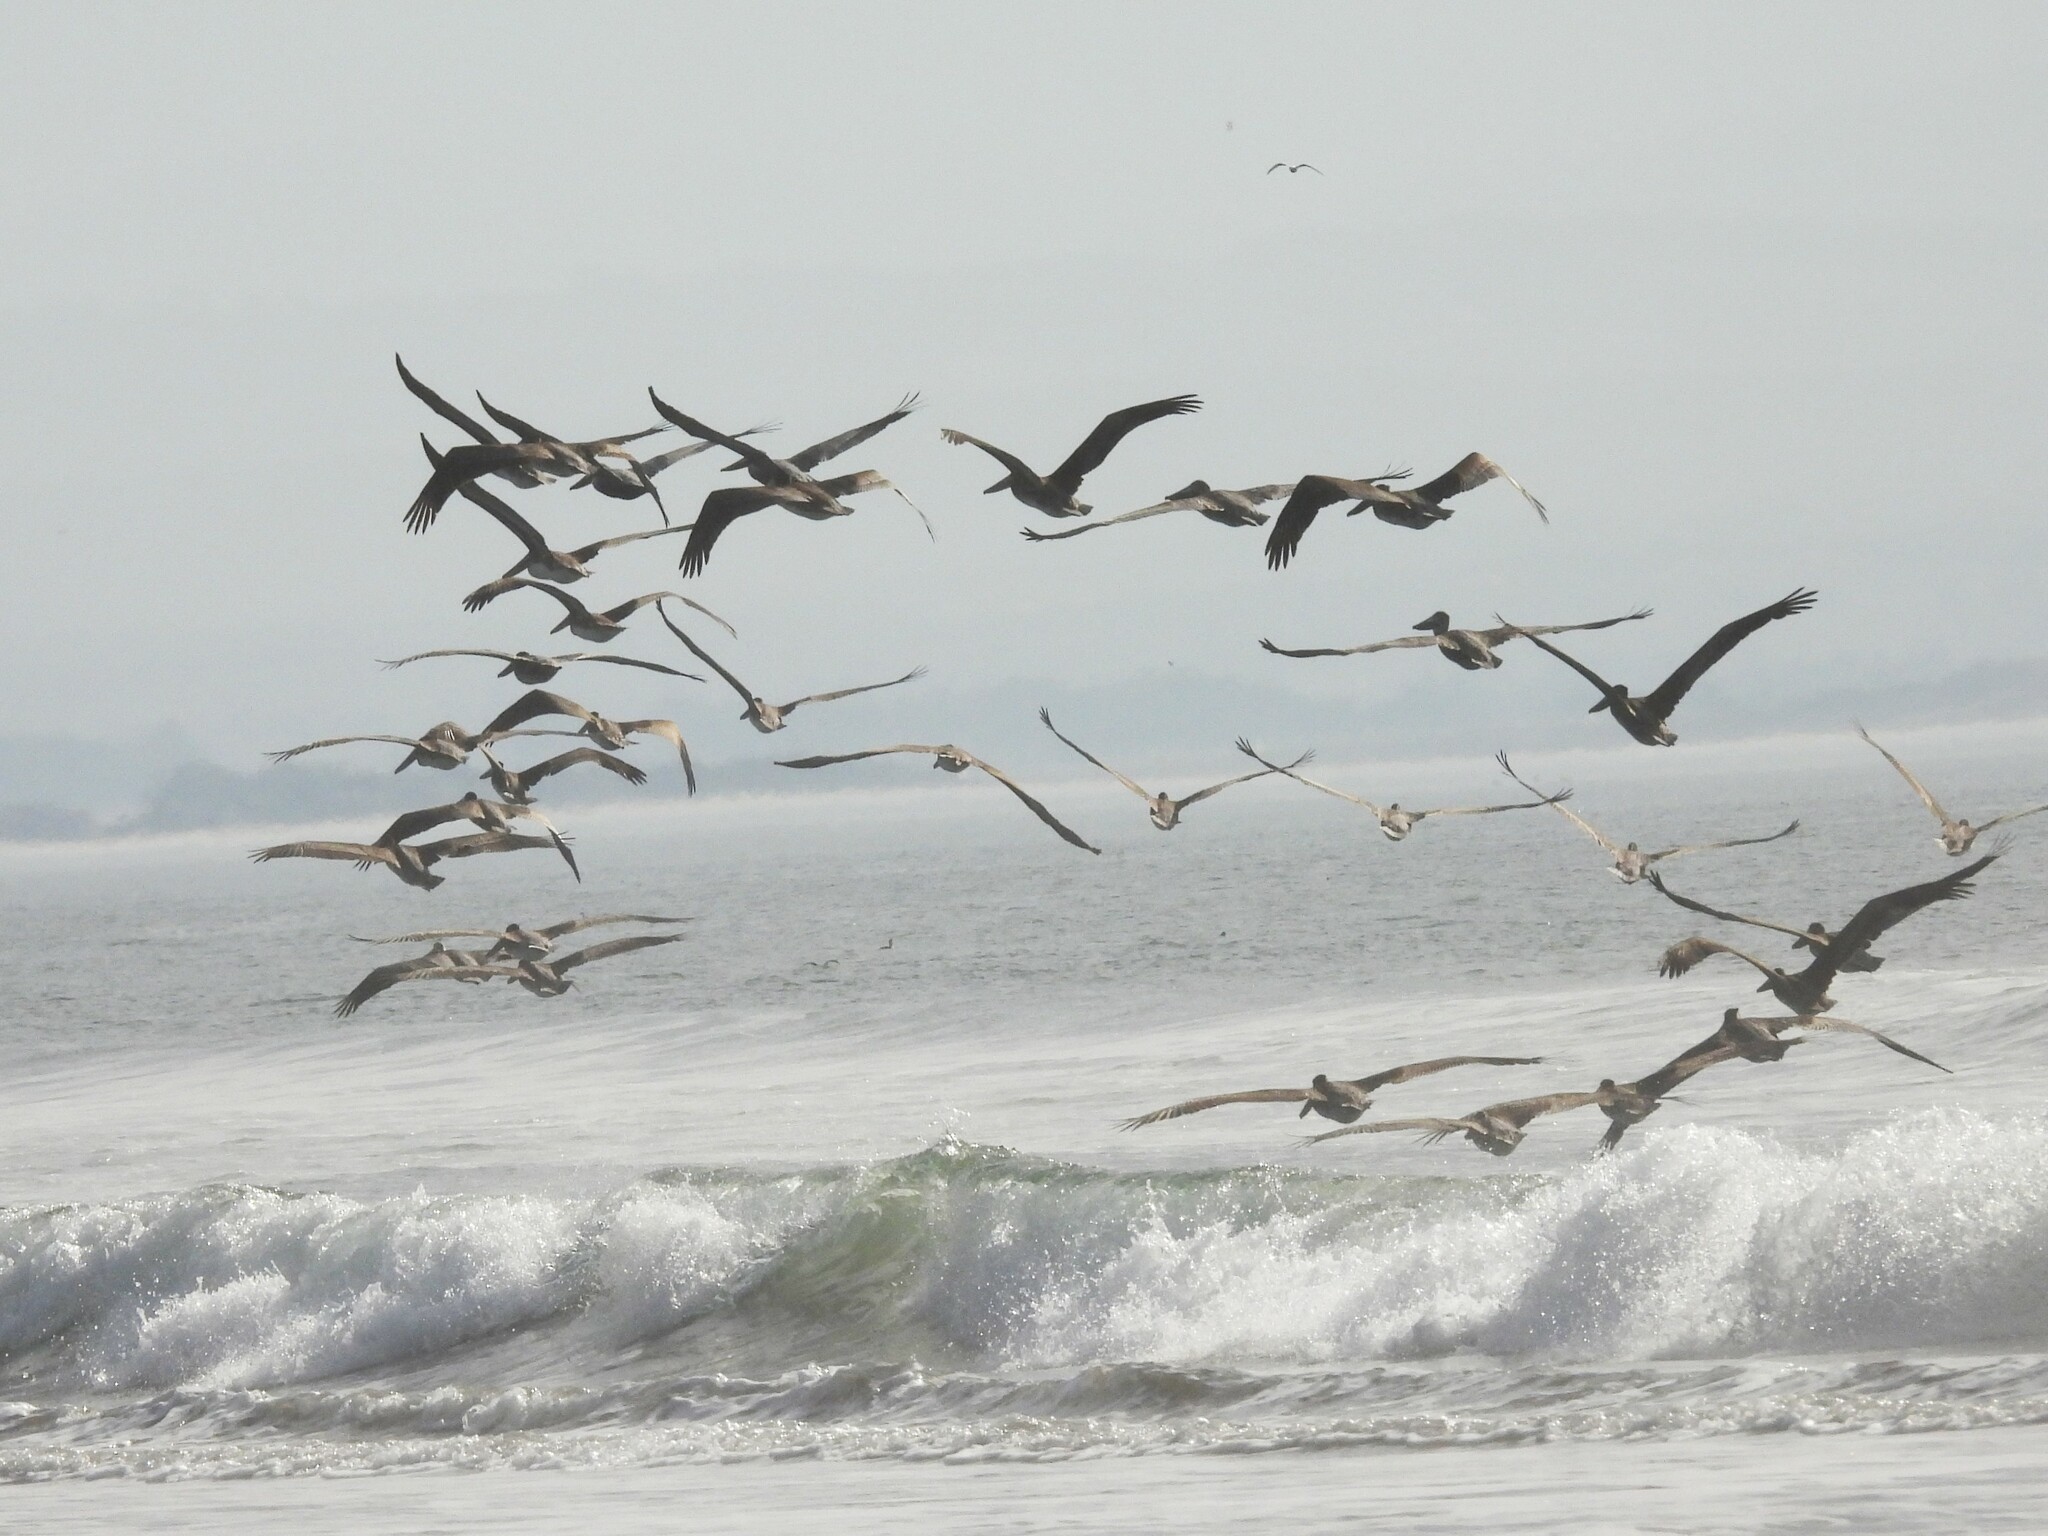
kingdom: Animalia
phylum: Chordata
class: Aves
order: Pelecaniformes
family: Pelecanidae
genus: Pelecanus
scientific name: Pelecanus occidentalis
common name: Brown pelican
